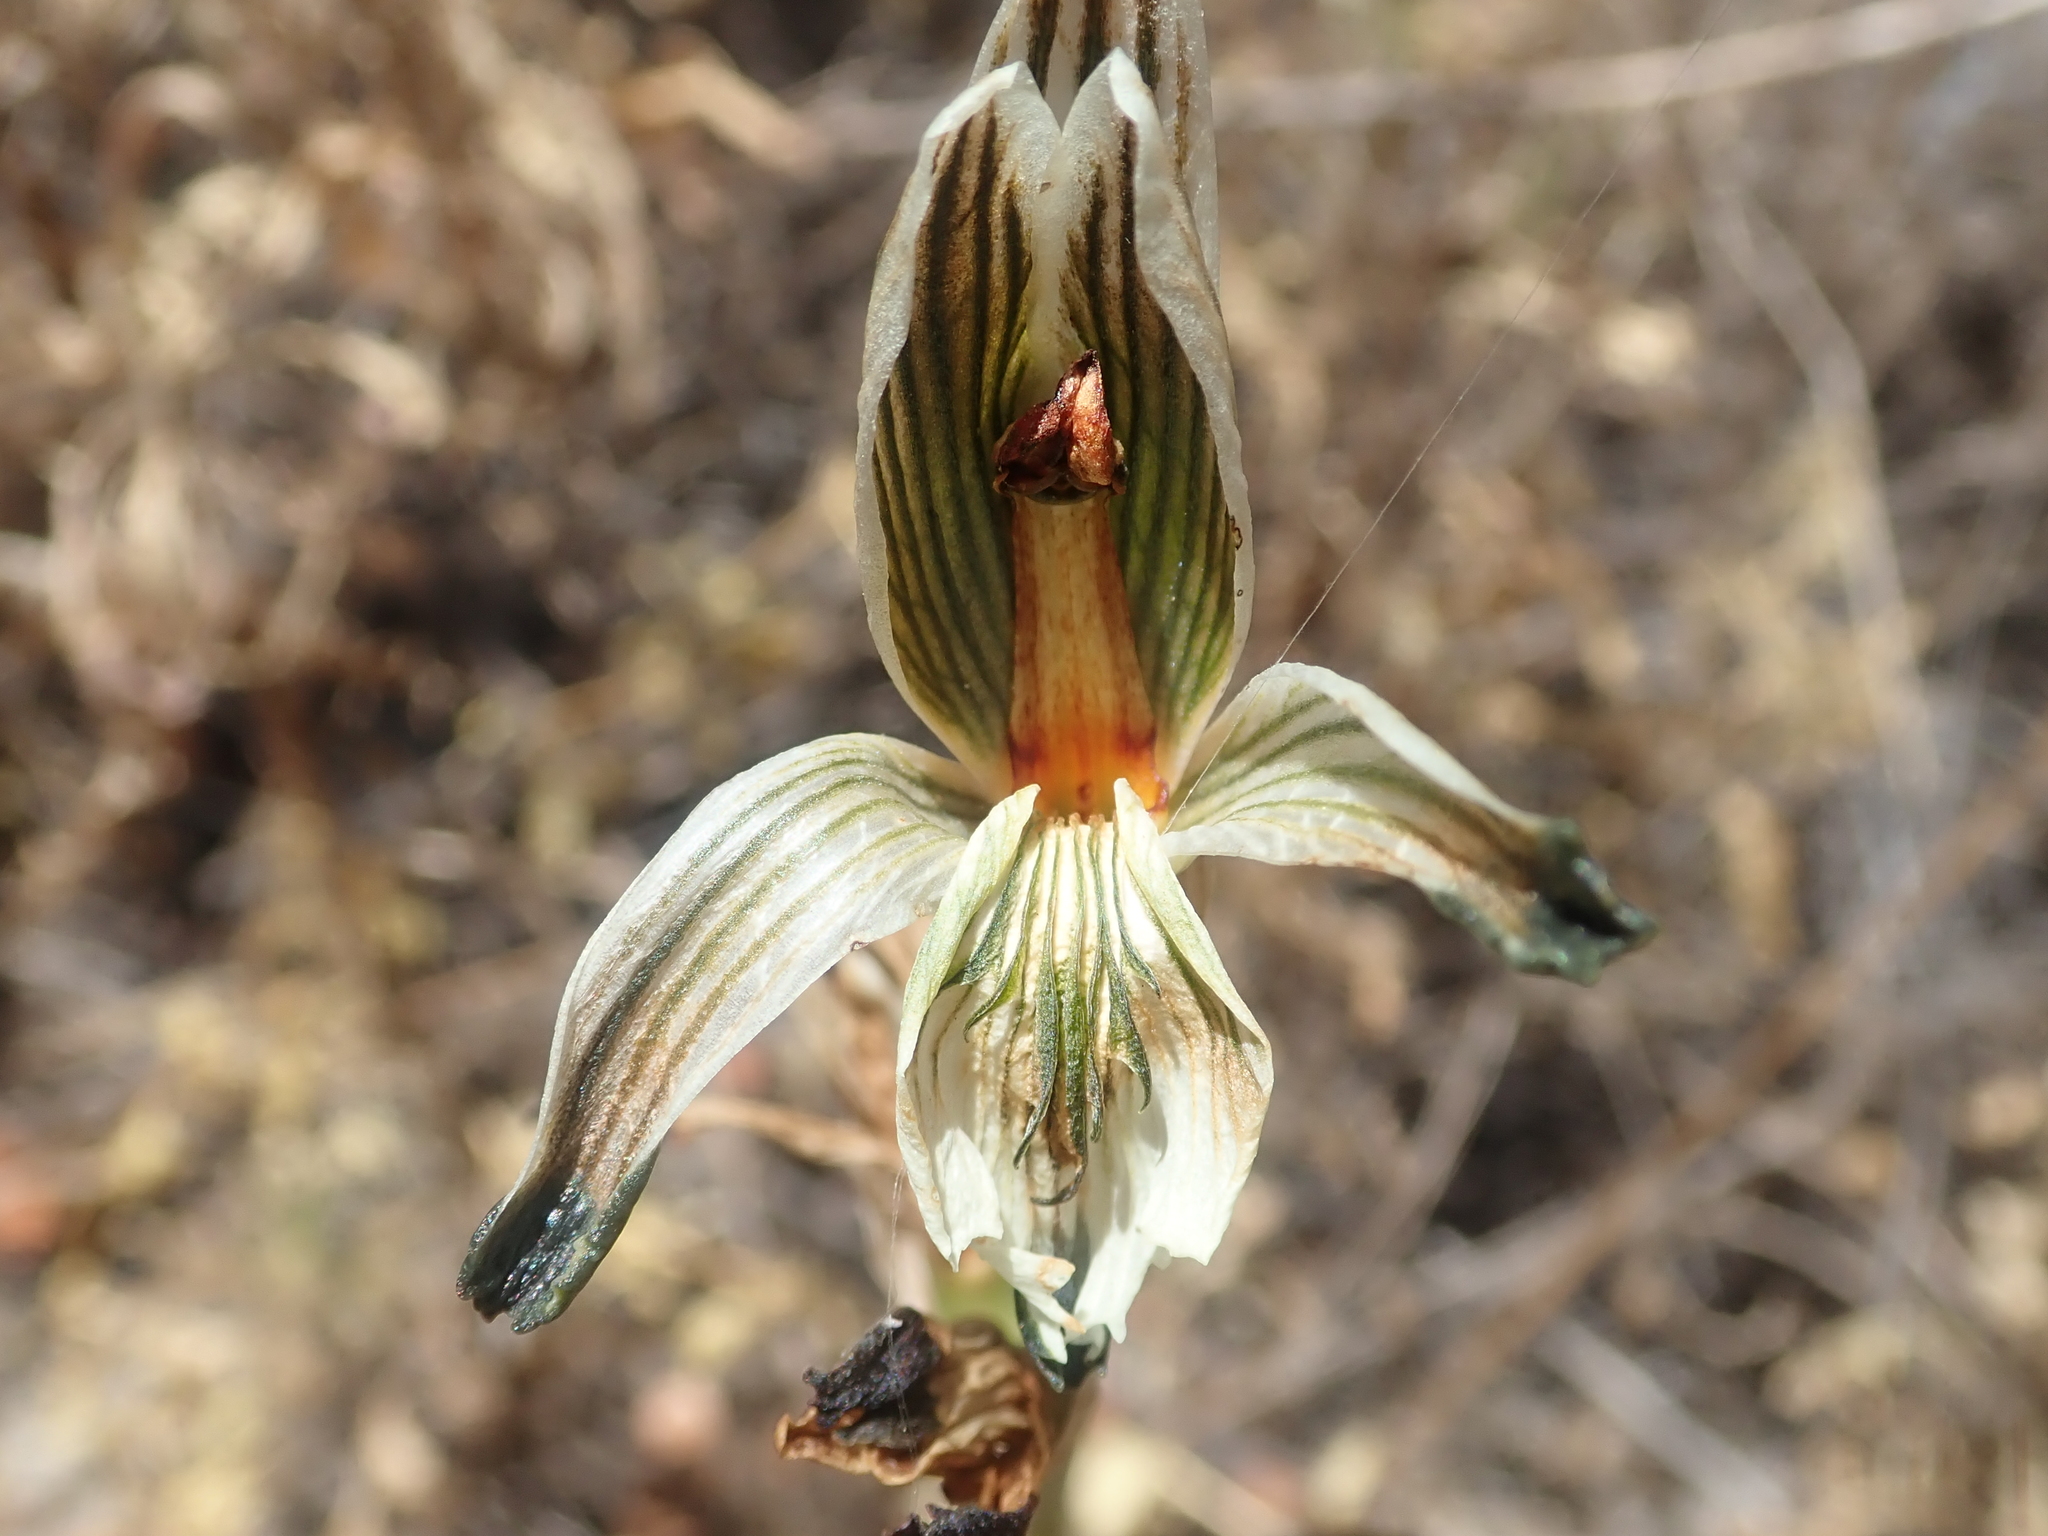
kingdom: Plantae
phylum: Tracheophyta
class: Liliopsida
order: Asparagales
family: Orchidaceae
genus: Chloraea
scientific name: Chloraea bletioides
